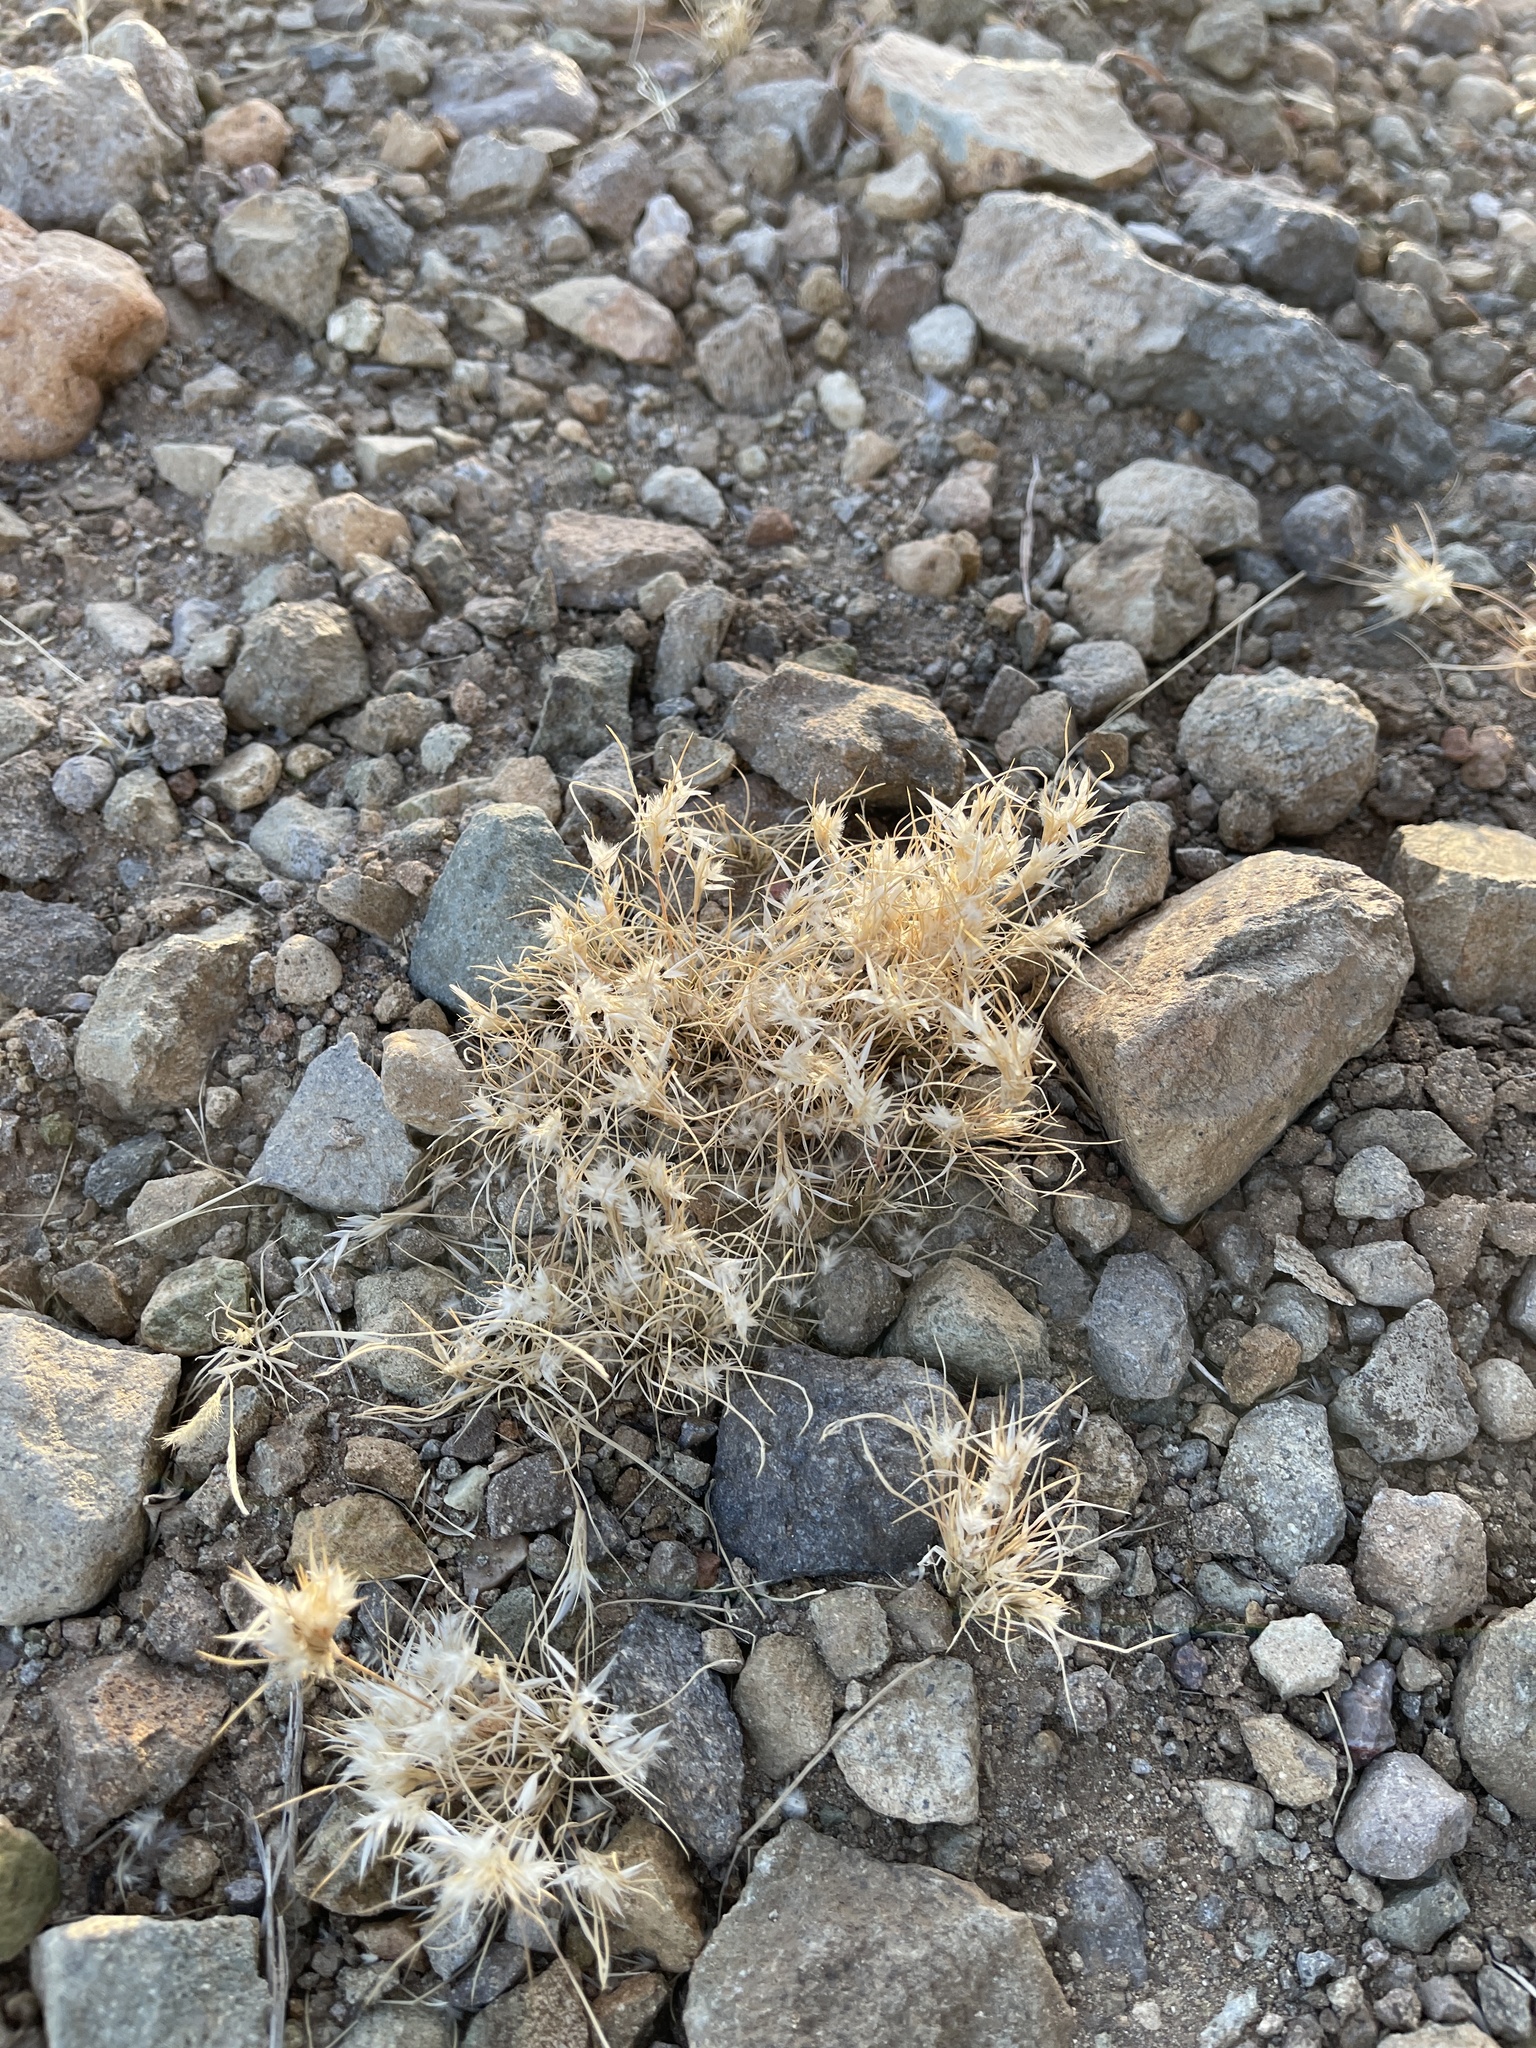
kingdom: Plantae
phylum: Tracheophyta
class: Liliopsida
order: Poales
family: Poaceae
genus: Dasyochloa
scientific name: Dasyochloa pulchella
